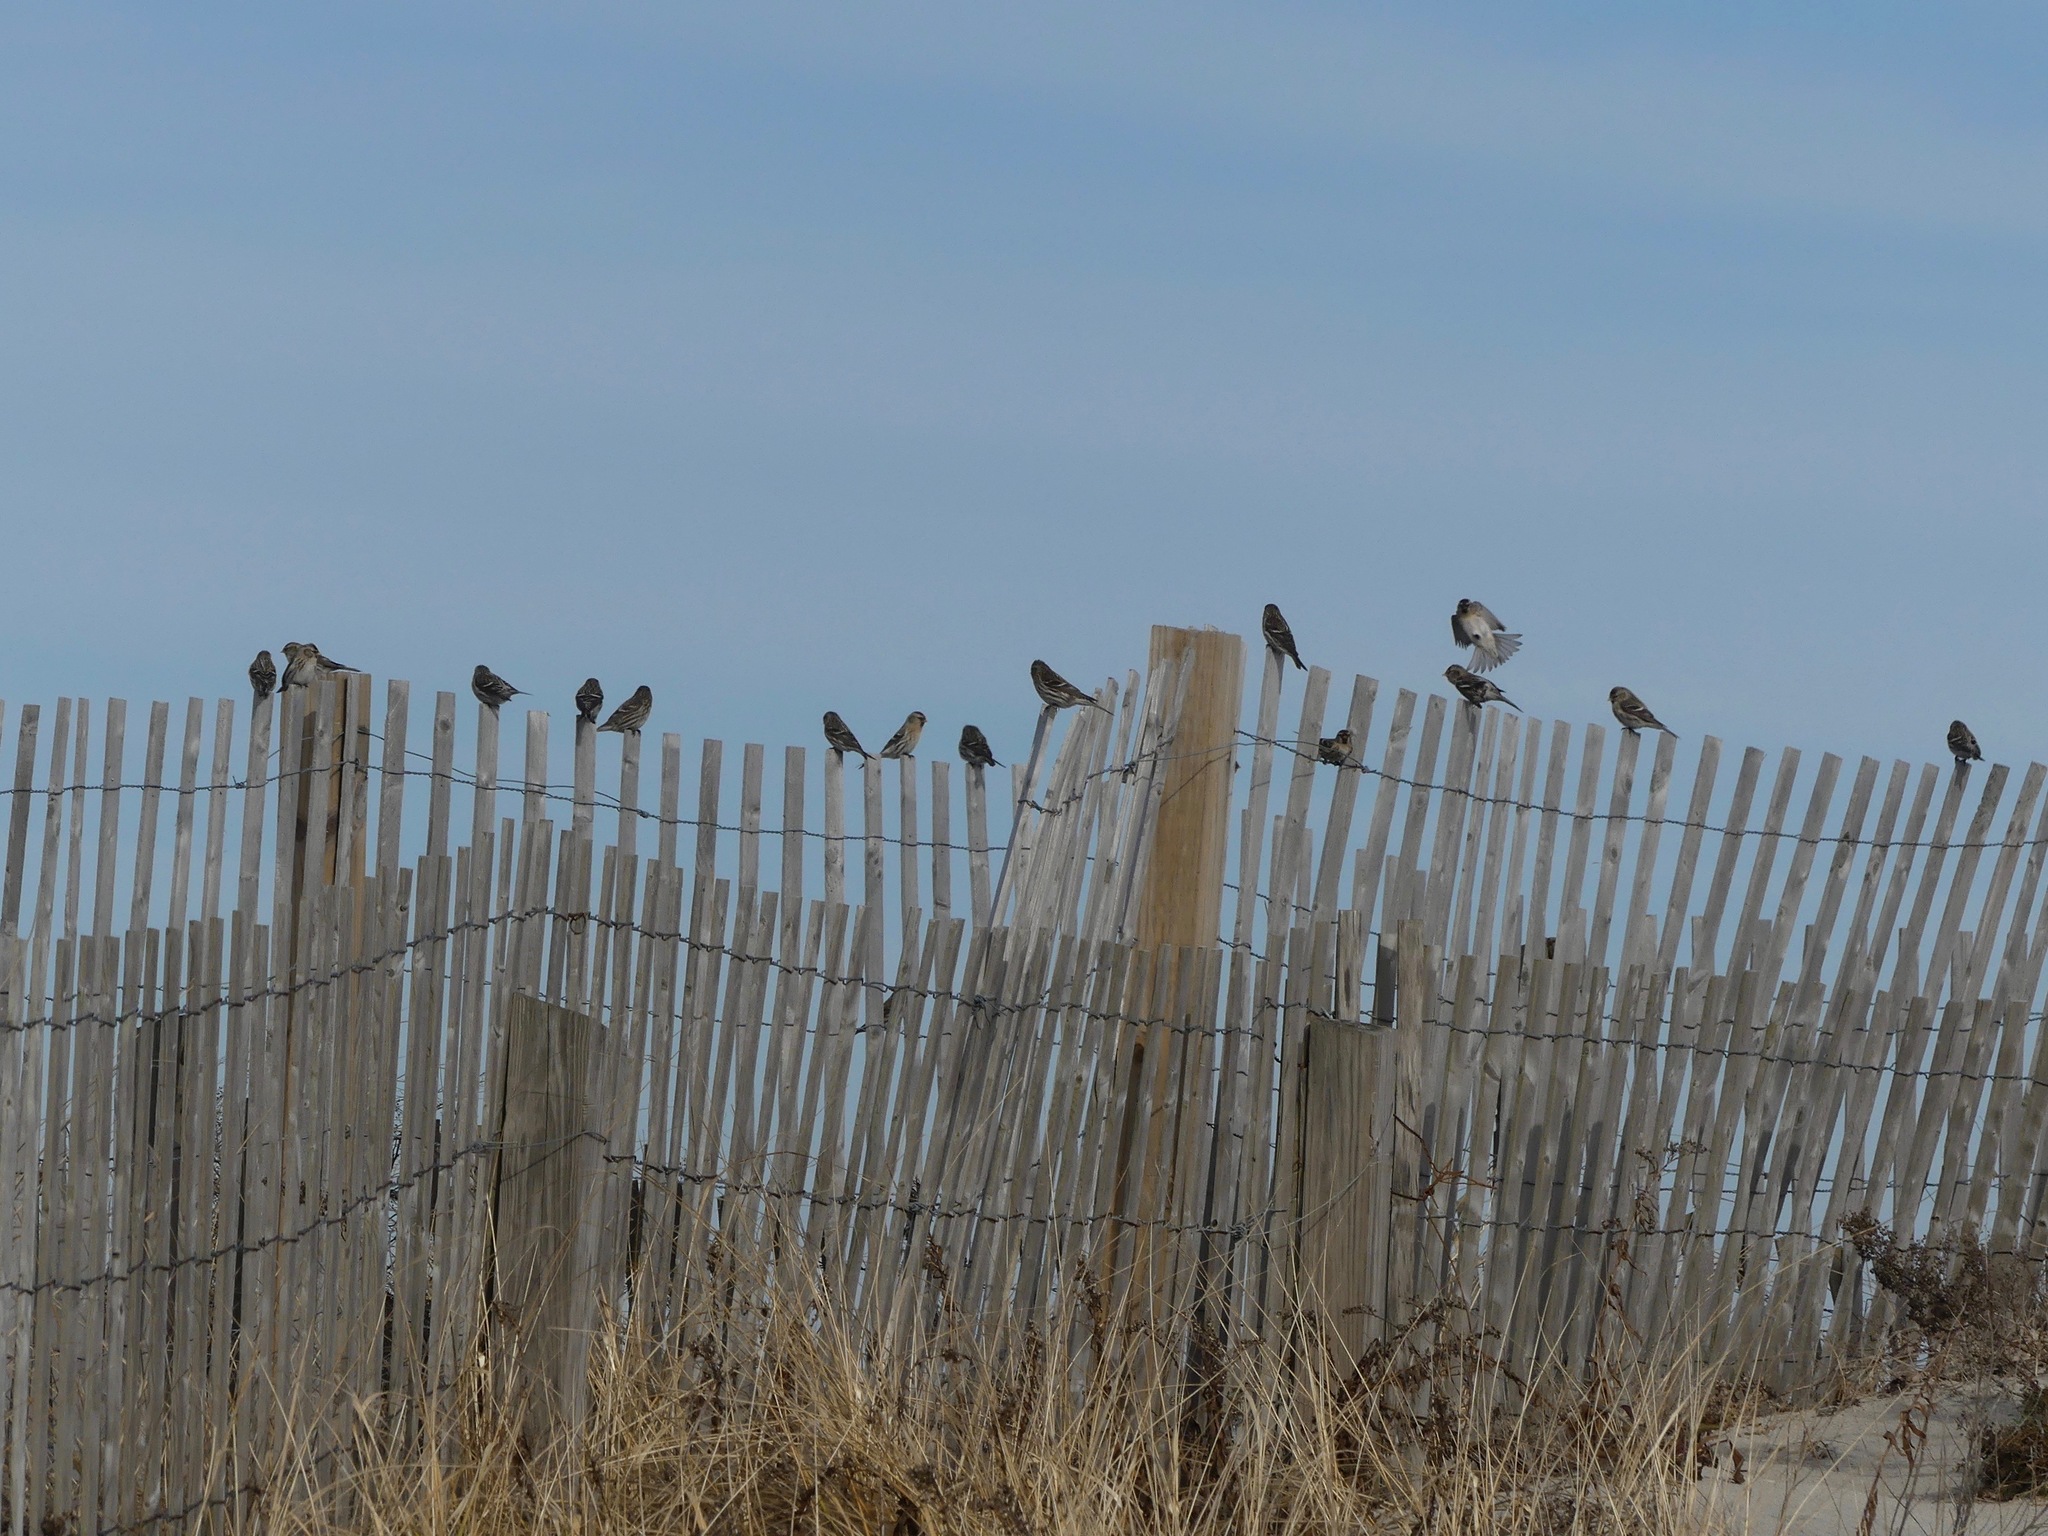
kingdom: Animalia
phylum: Chordata
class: Aves
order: Passeriformes
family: Fringillidae
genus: Acanthis
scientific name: Acanthis flammea
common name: Common redpoll
